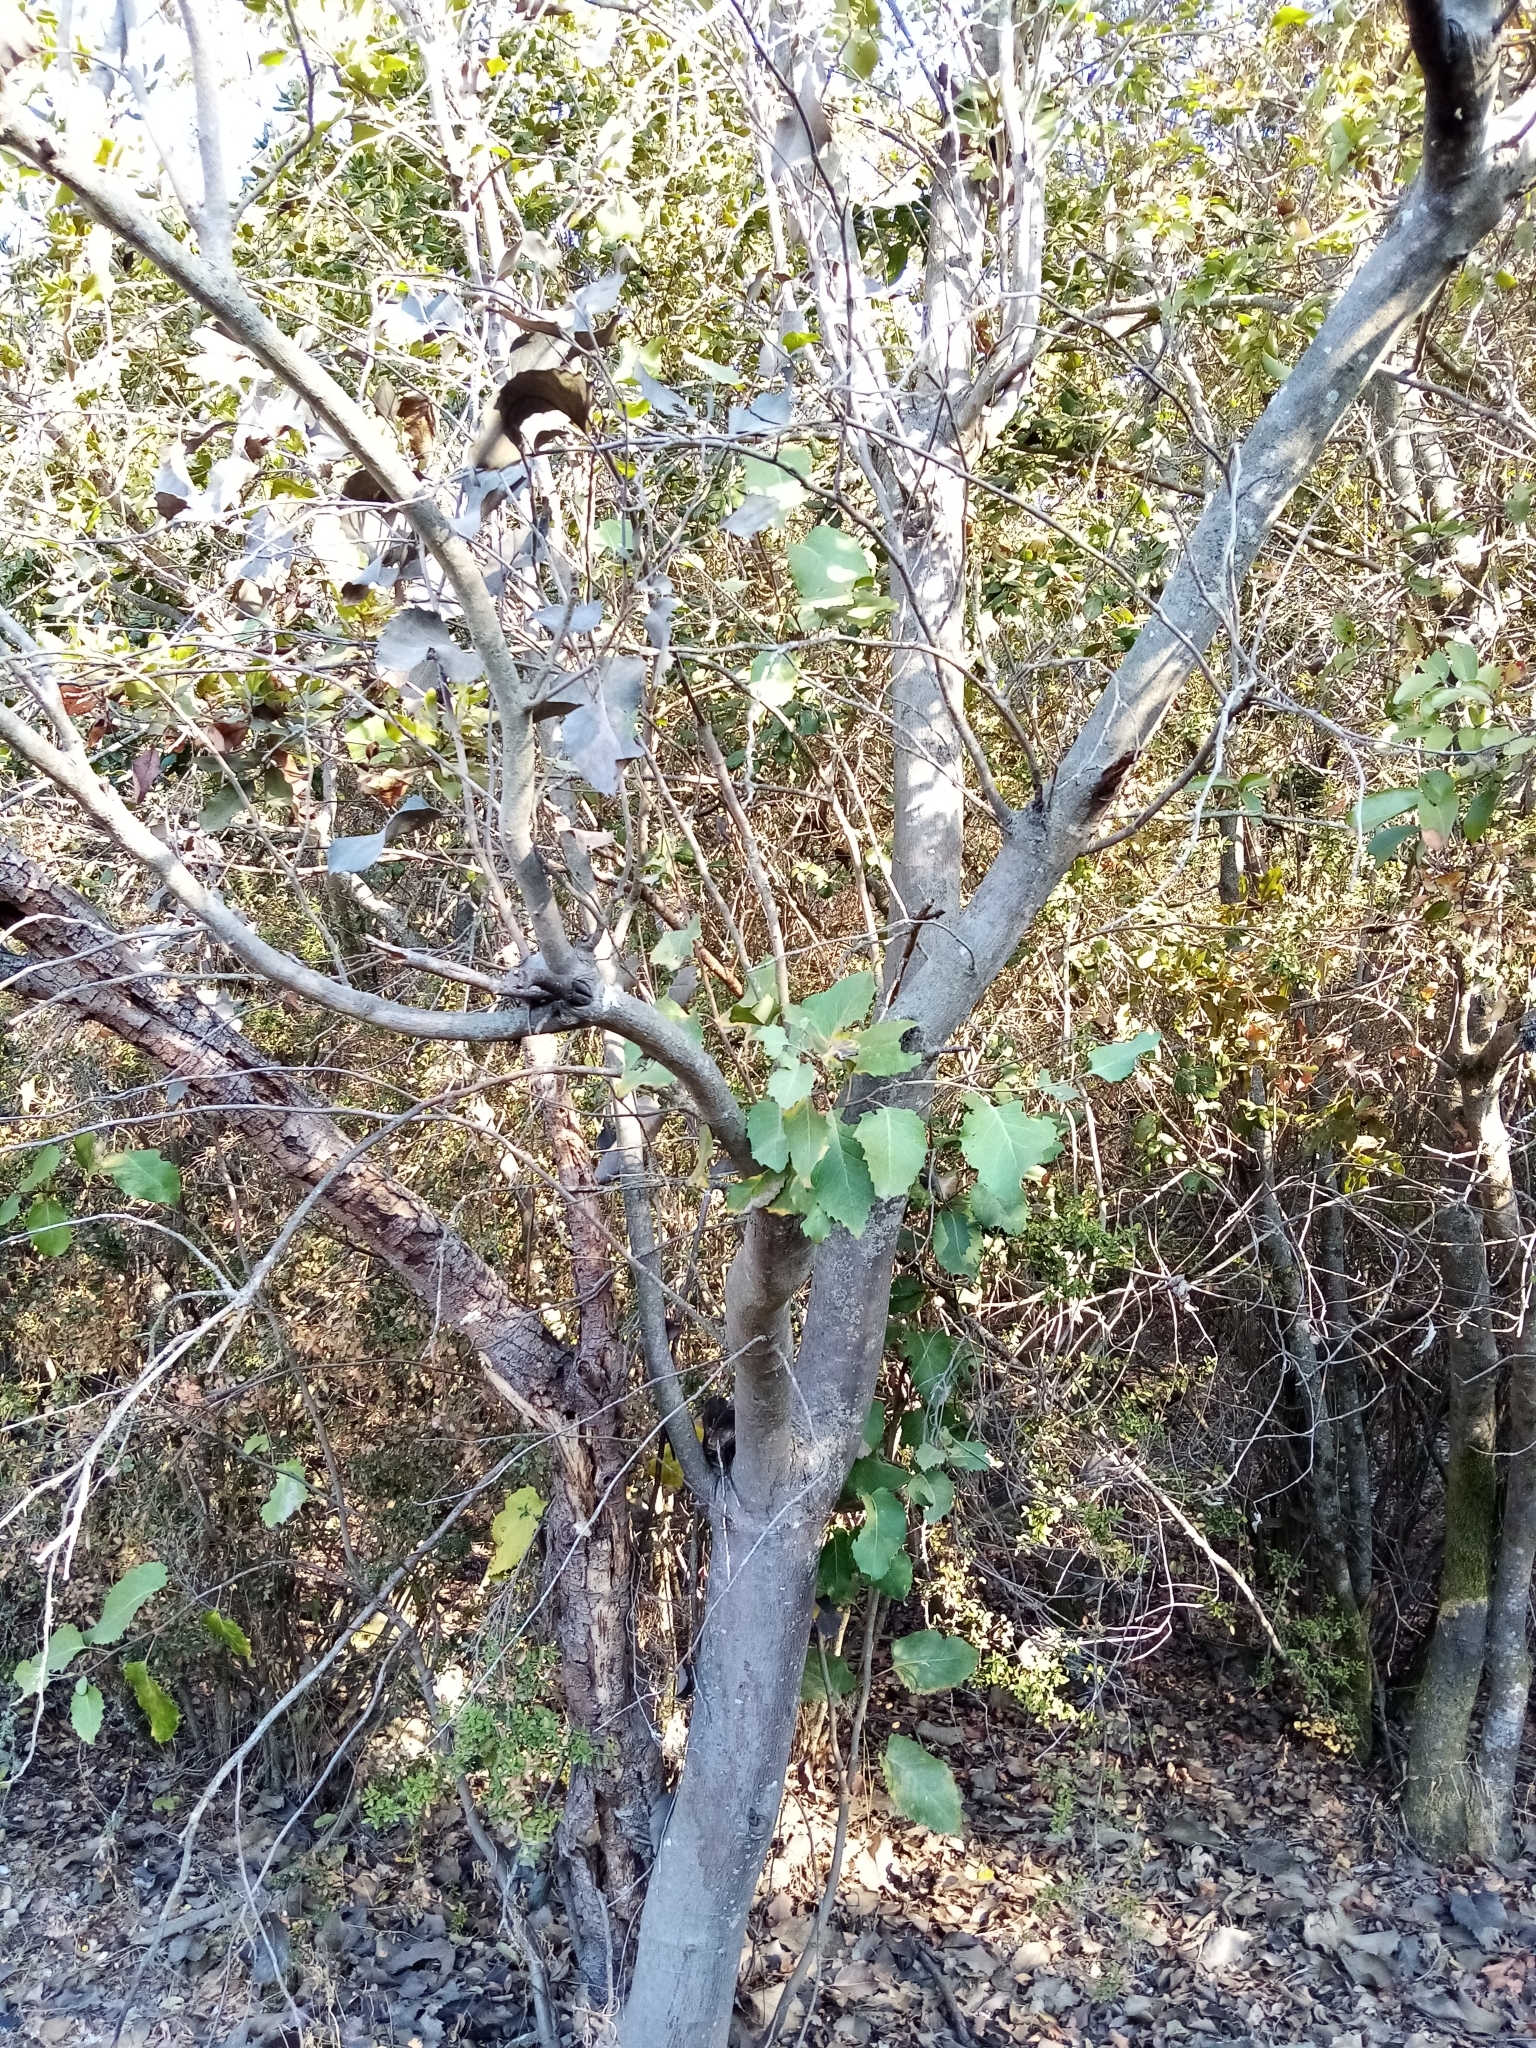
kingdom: Plantae
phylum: Tracheophyta
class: Magnoliopsida
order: Proteales
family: Proteaceae
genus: Lomatia
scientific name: Lomatia hirsuta
